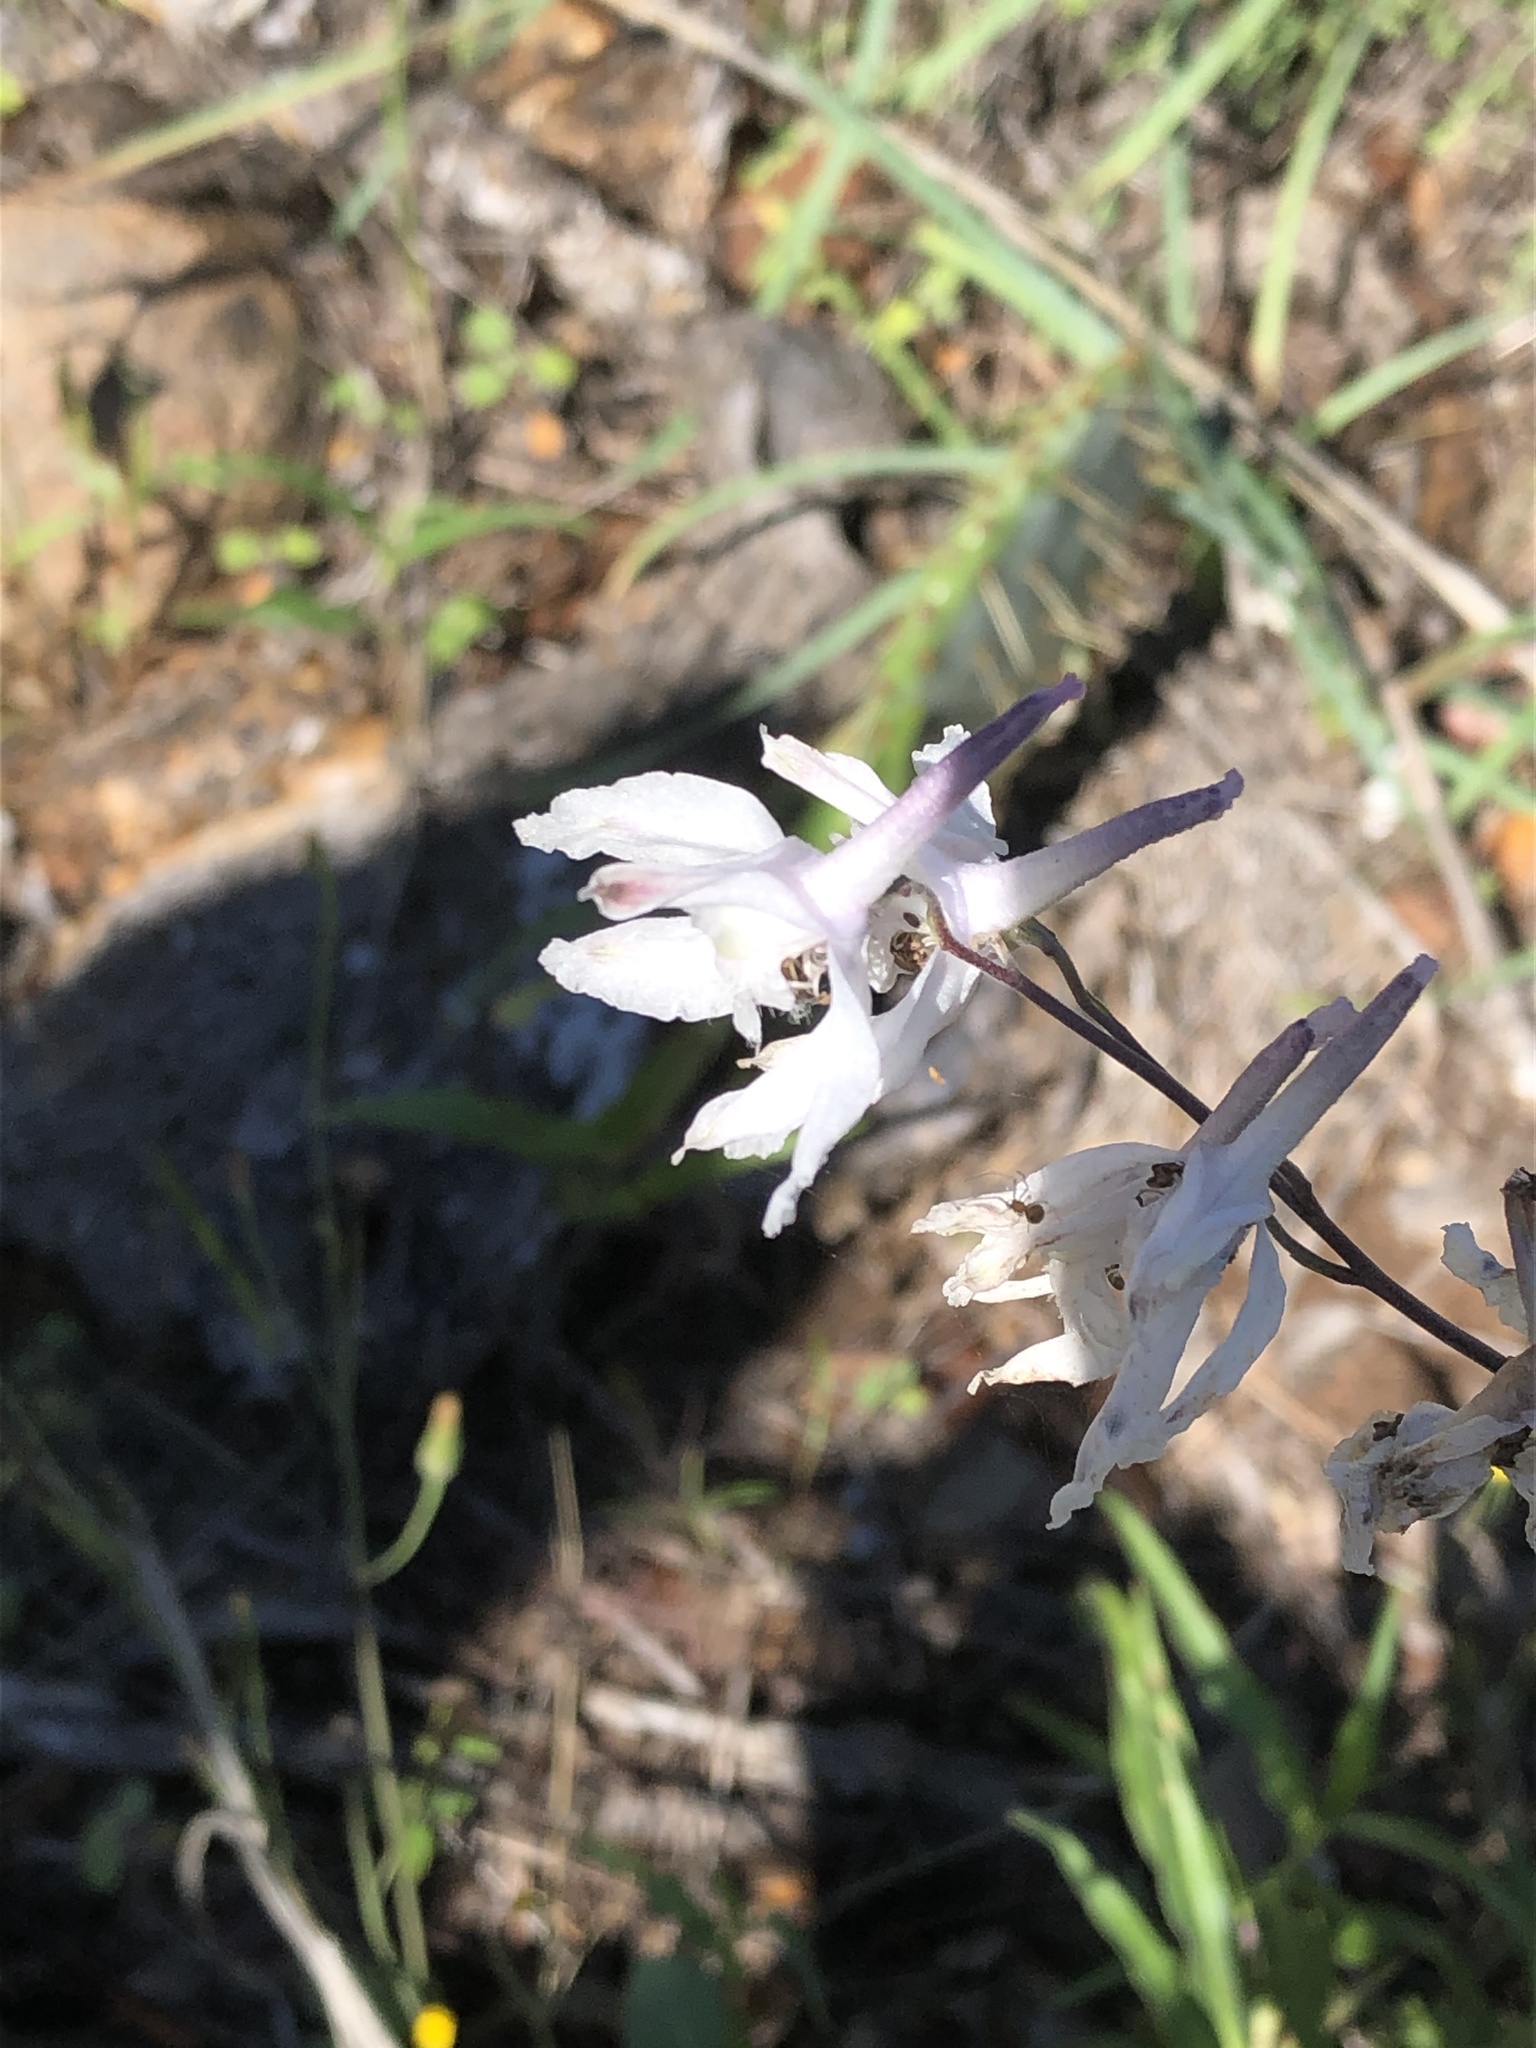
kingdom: Plantae
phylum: Tracheophyta
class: Magnoliopsida
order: Ranunculales
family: Ranunculaceae
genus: Delphinium
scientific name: Delphinium carolinianum
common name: Carolina larkspur
